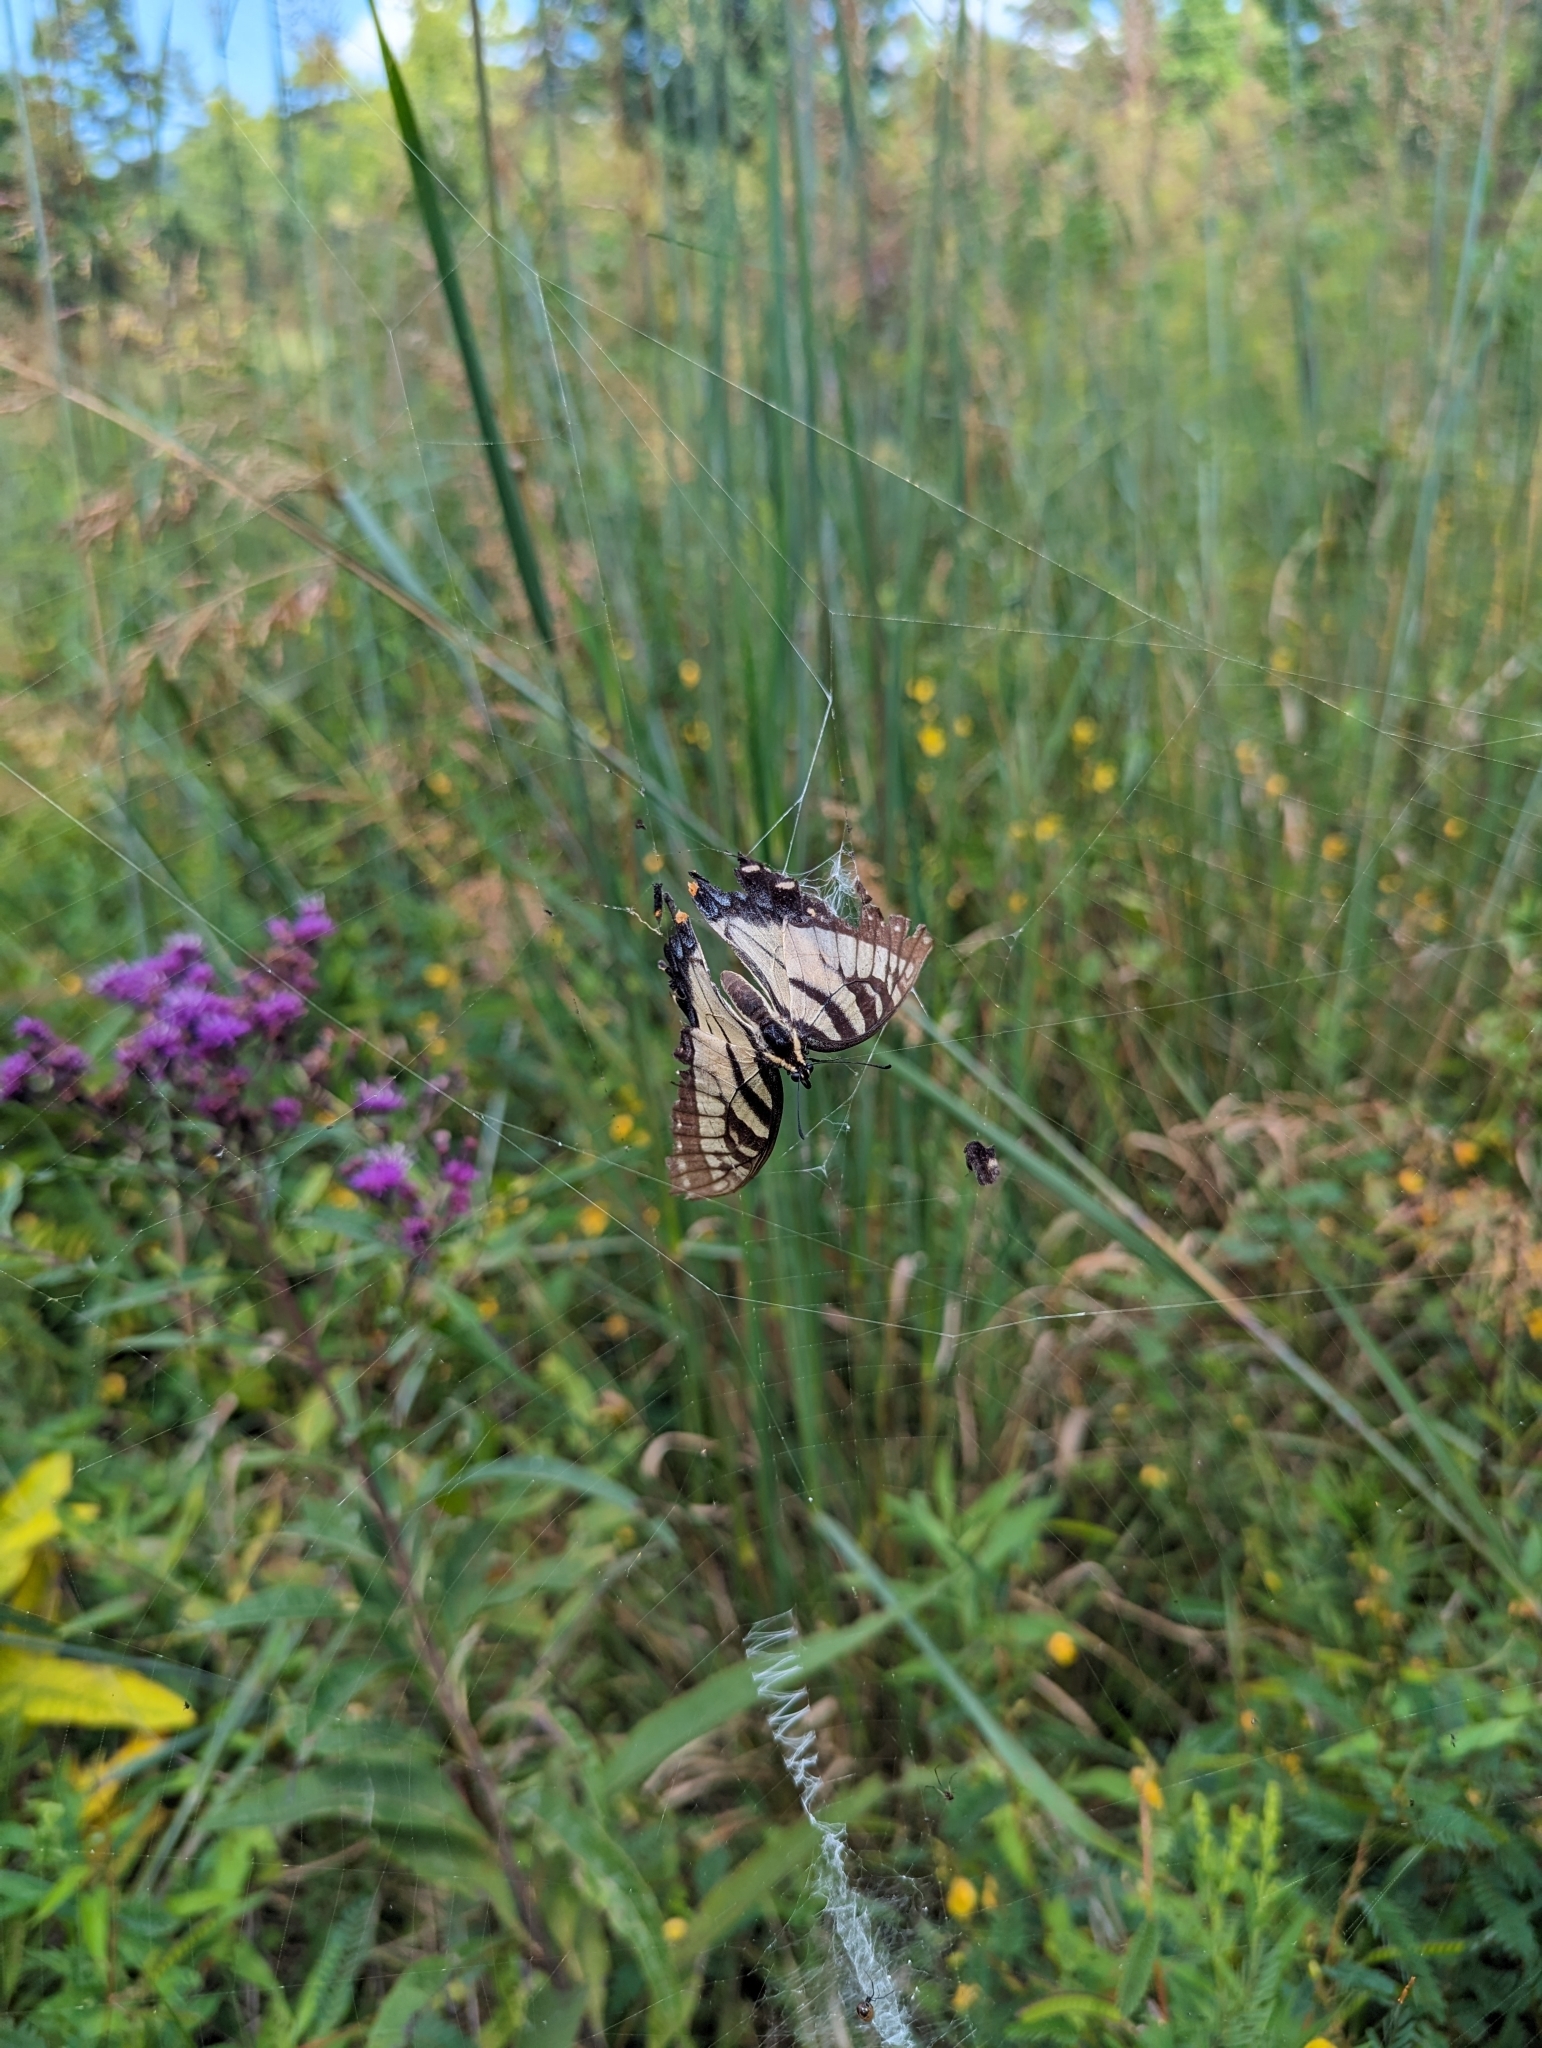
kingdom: Animalia
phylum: Arthropoda
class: Insecta
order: Lepidoptera
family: Papilionidae
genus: Papilio
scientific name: Papilio glaucus
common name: Tiger swallowtail
